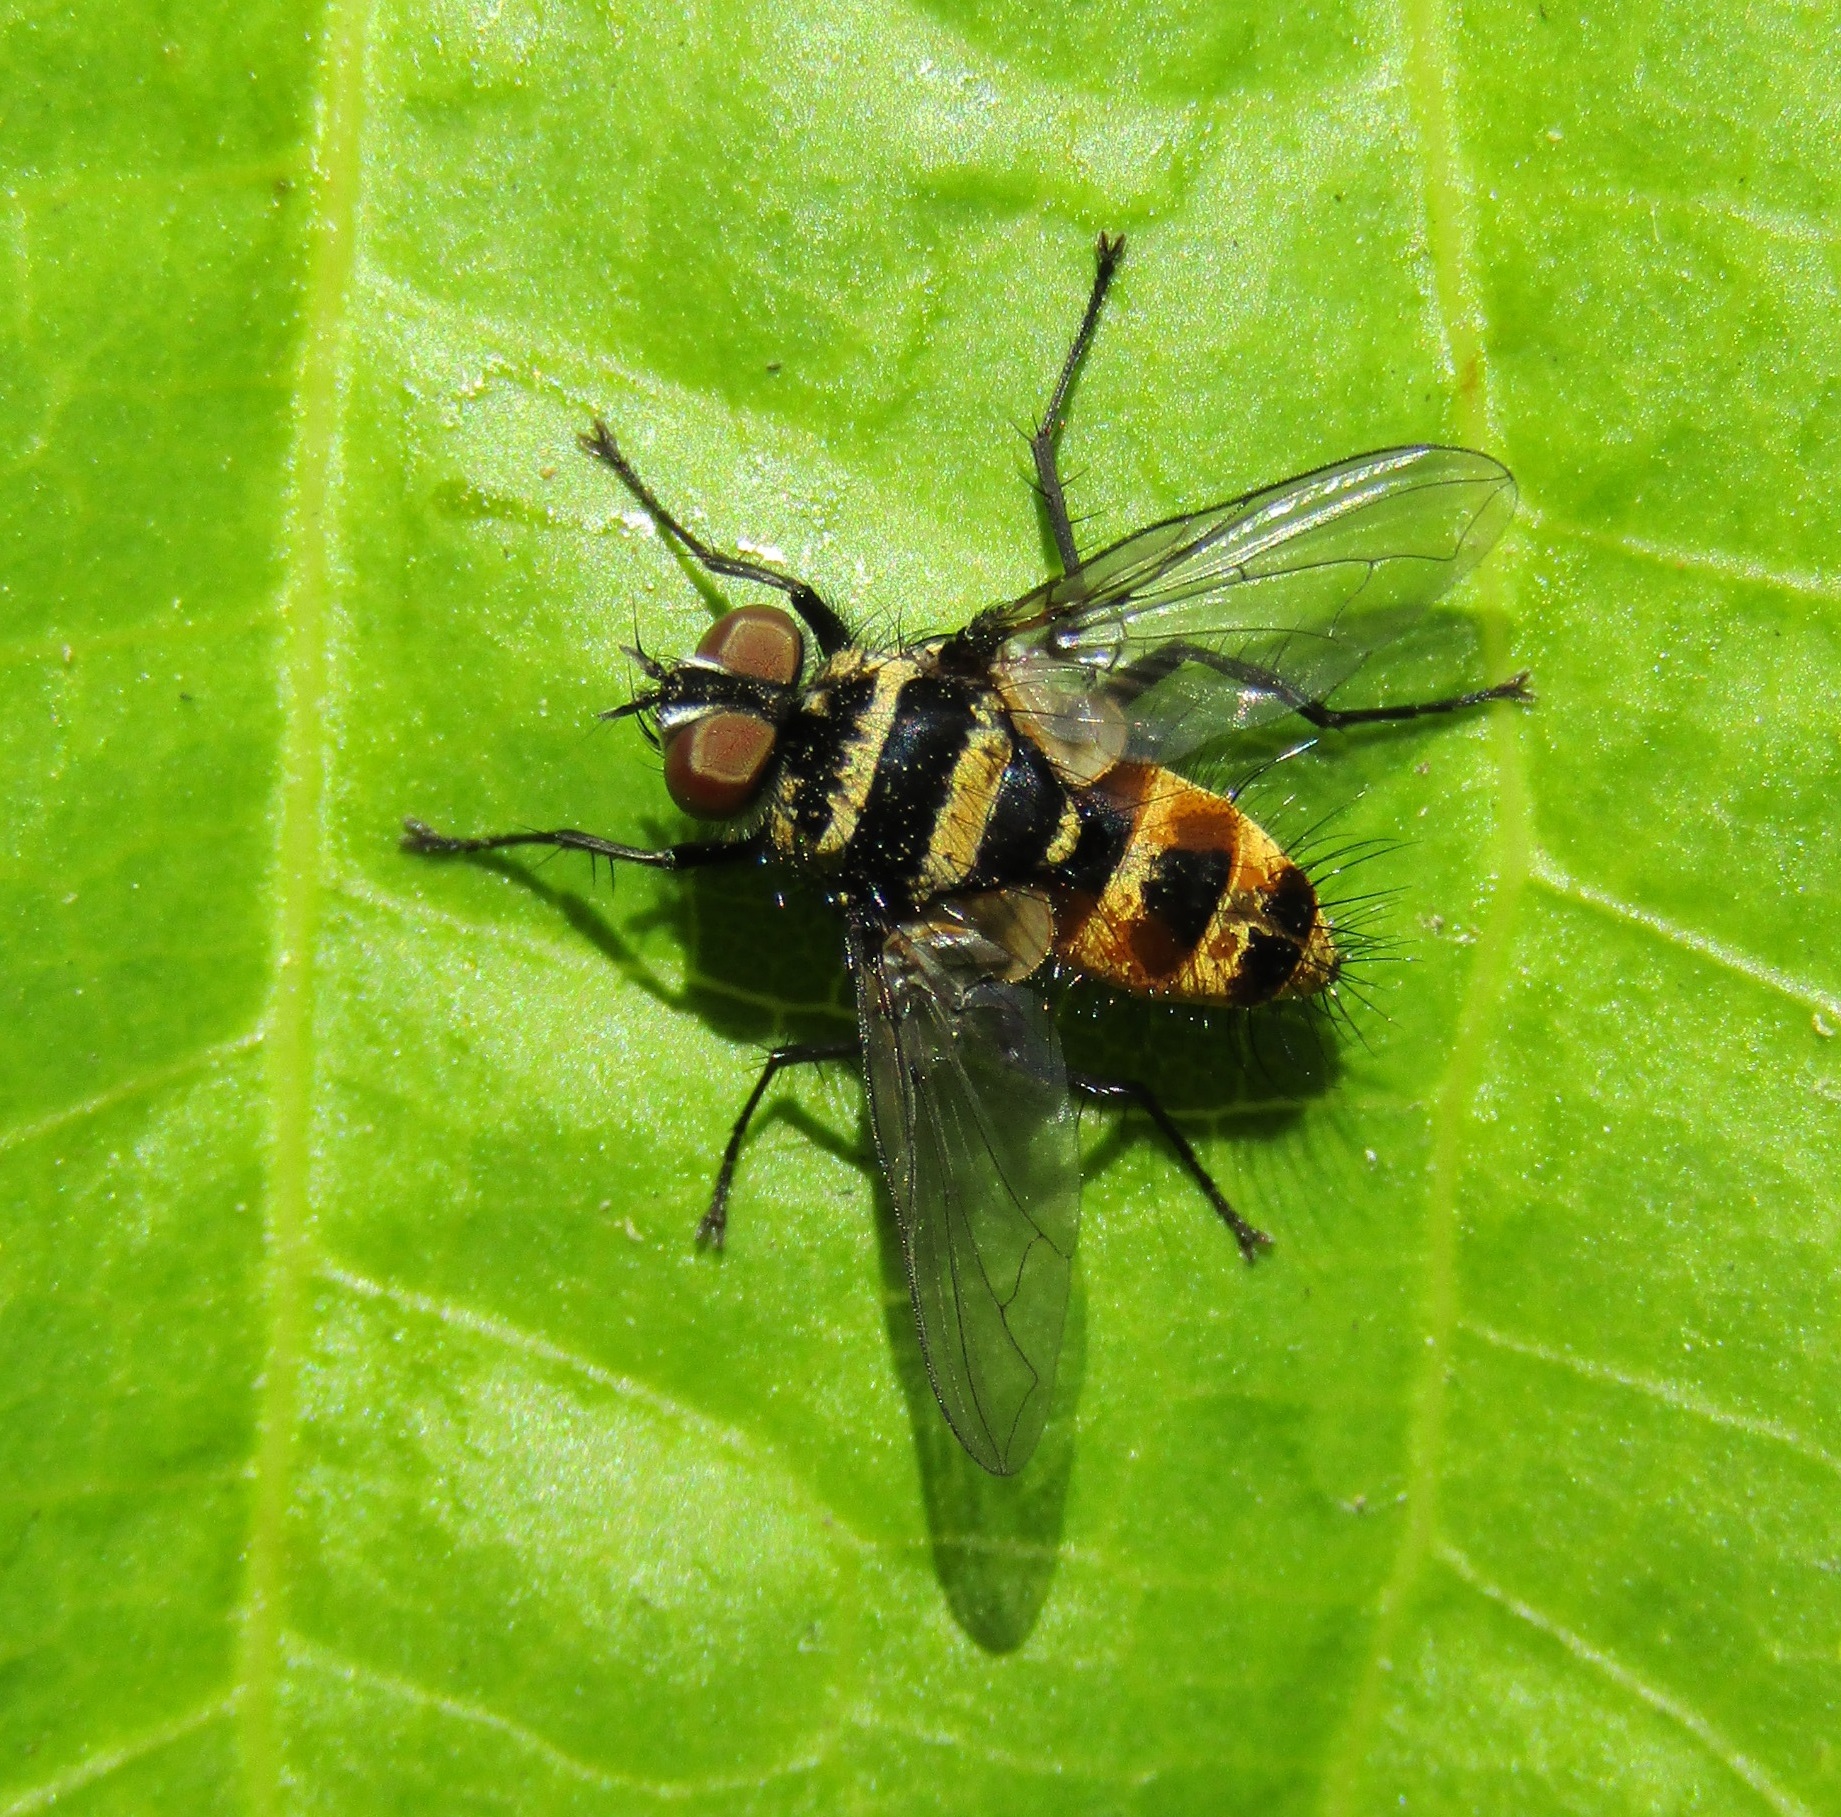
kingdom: Animalia
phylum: Arthropoda
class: Insecta
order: Diptera
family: Tachinidae
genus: Trigonospila
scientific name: Trigonospila brevifacies
